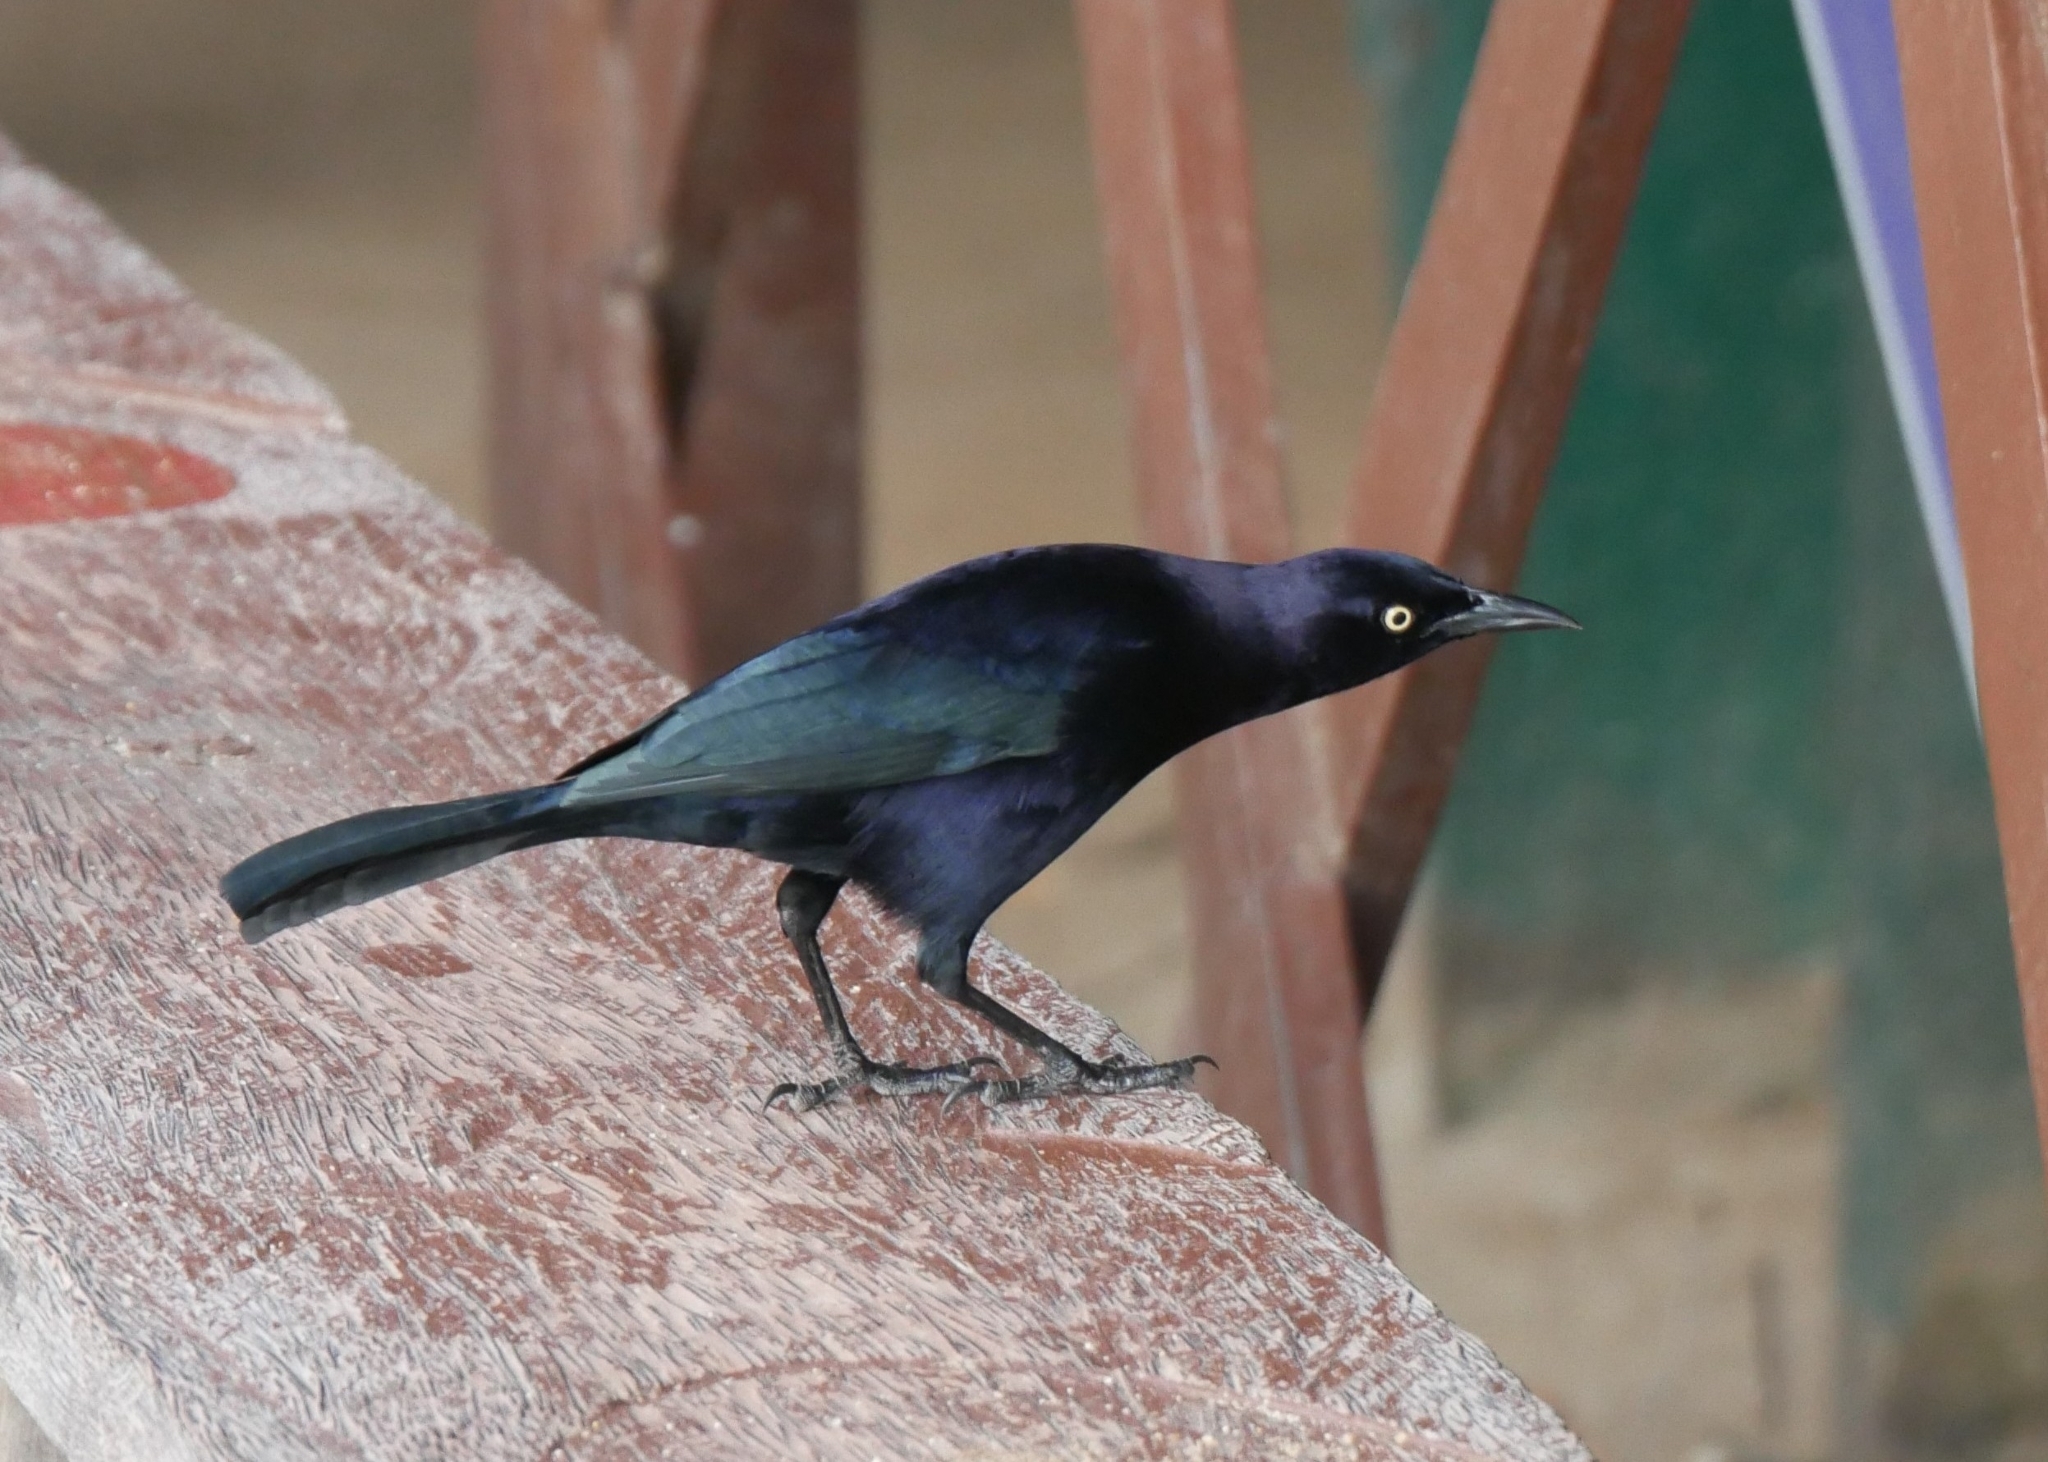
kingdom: Animalia
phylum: Chordata
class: Aves
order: Passeriformes
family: Icteridae
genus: Quiscalus
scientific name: Quiscalus lugubris
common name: Carib grackle
